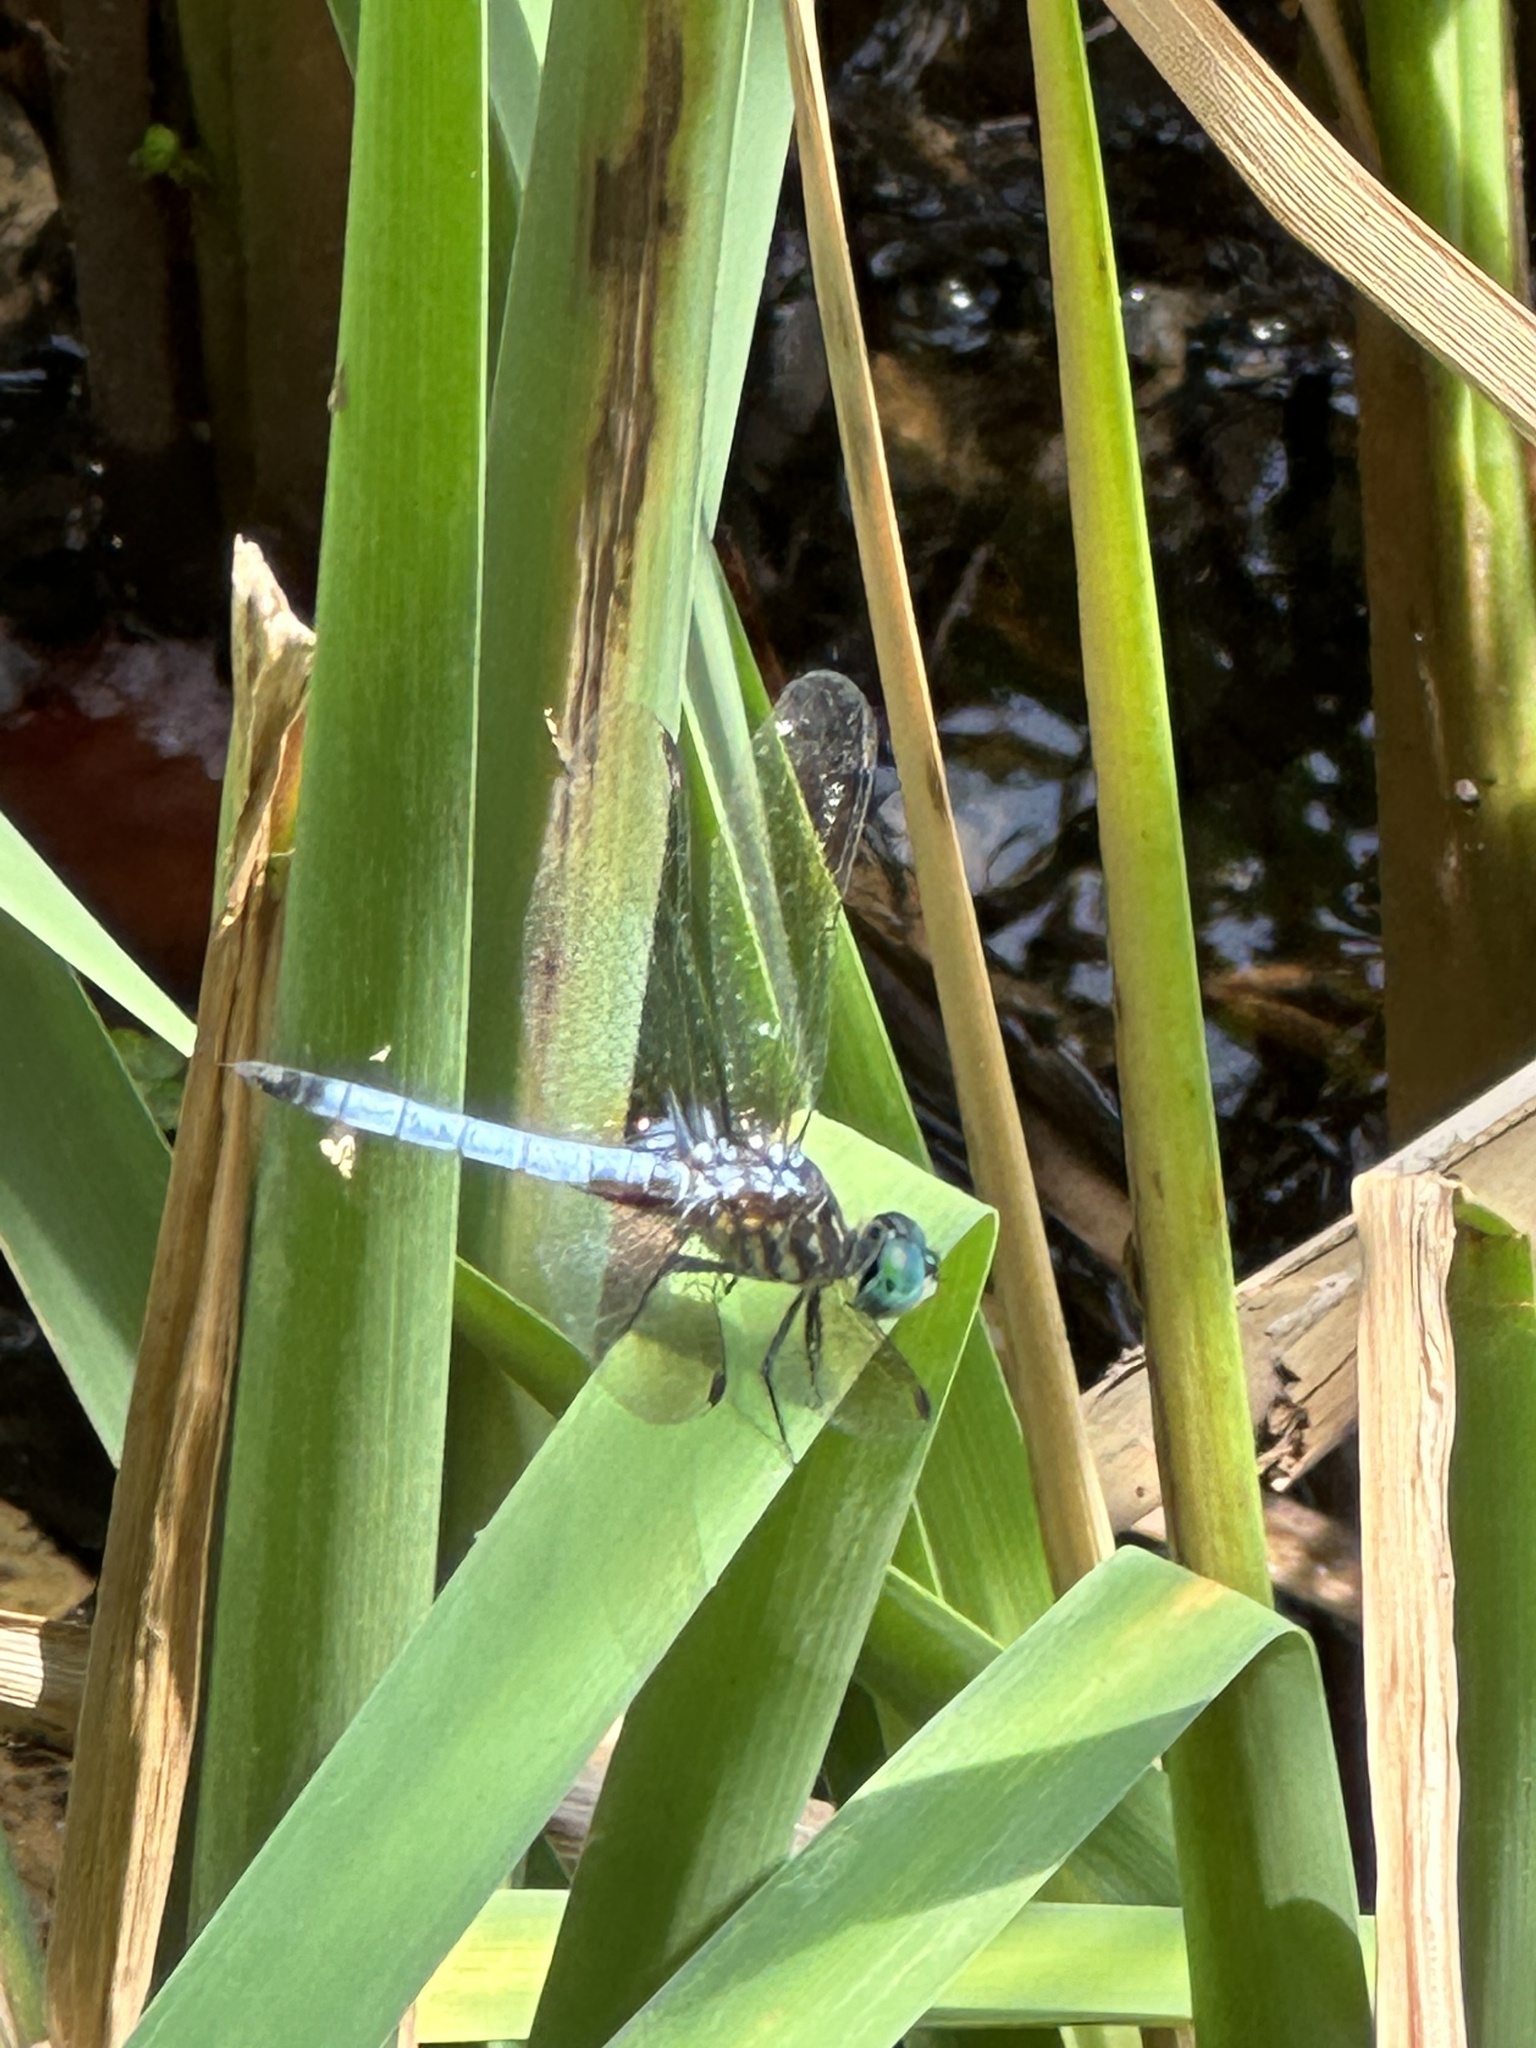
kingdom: Animalia
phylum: Arthropoda
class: Insecta
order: Odonata
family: Libellulidae
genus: Pachydiplax
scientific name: Pachydiplax longipennis
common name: Blue dasher
